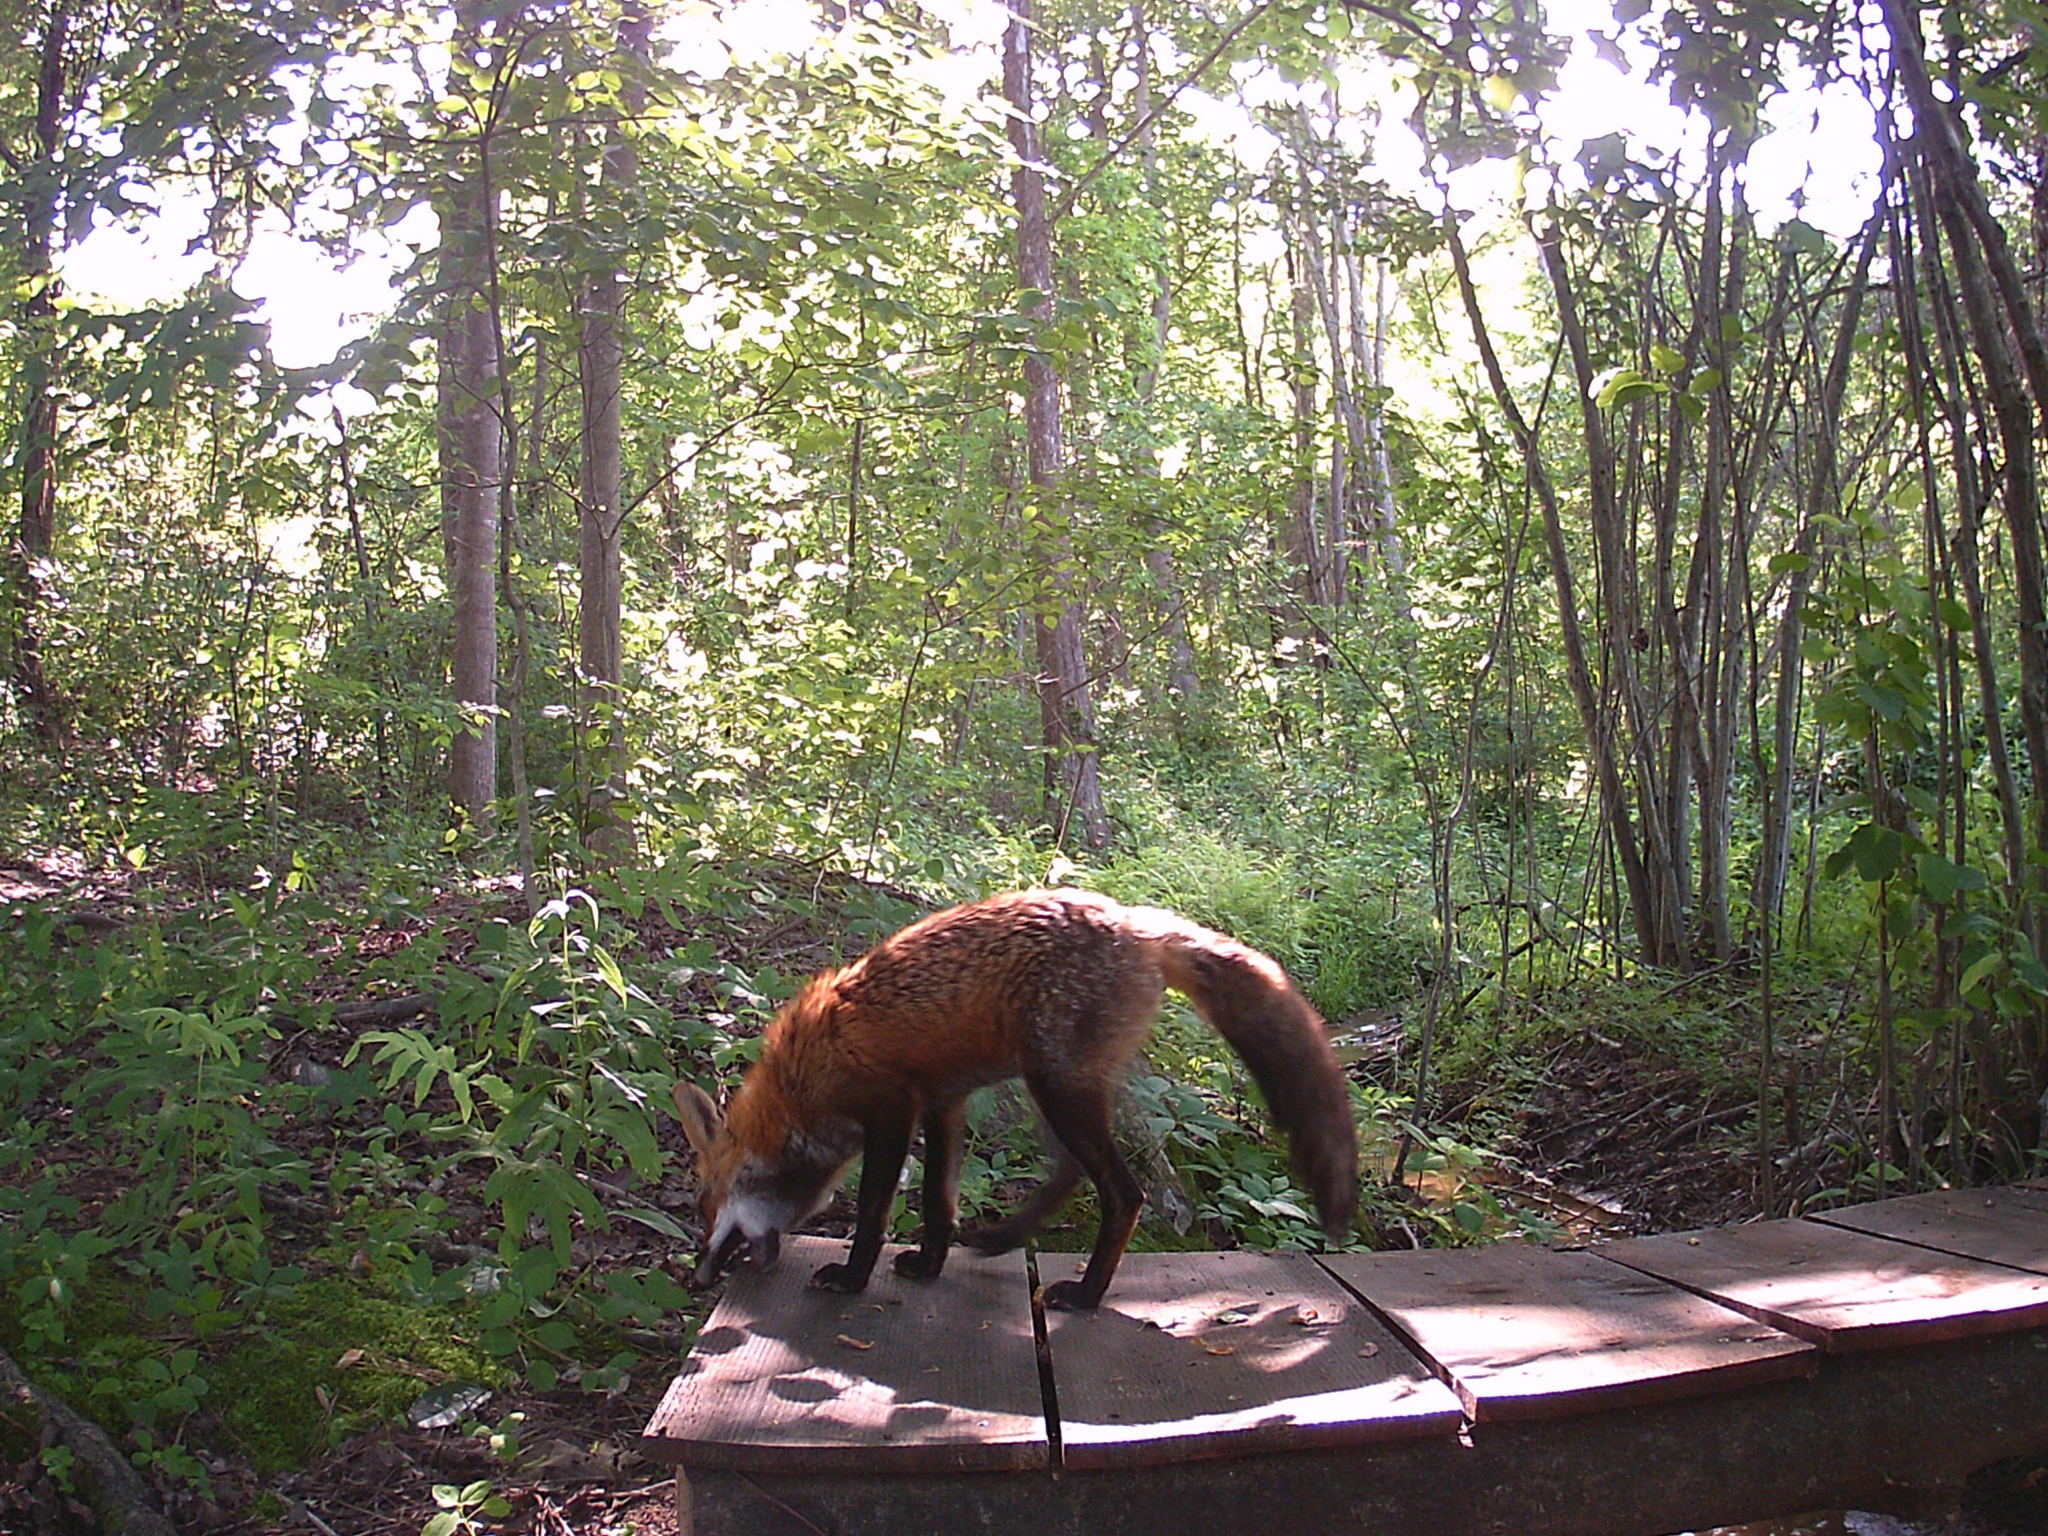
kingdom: Animalia
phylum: Chordata
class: Mammalia
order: Carnivora
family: Canidae
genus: Vulpes
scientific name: Vulpes vulpes
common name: Red fox
